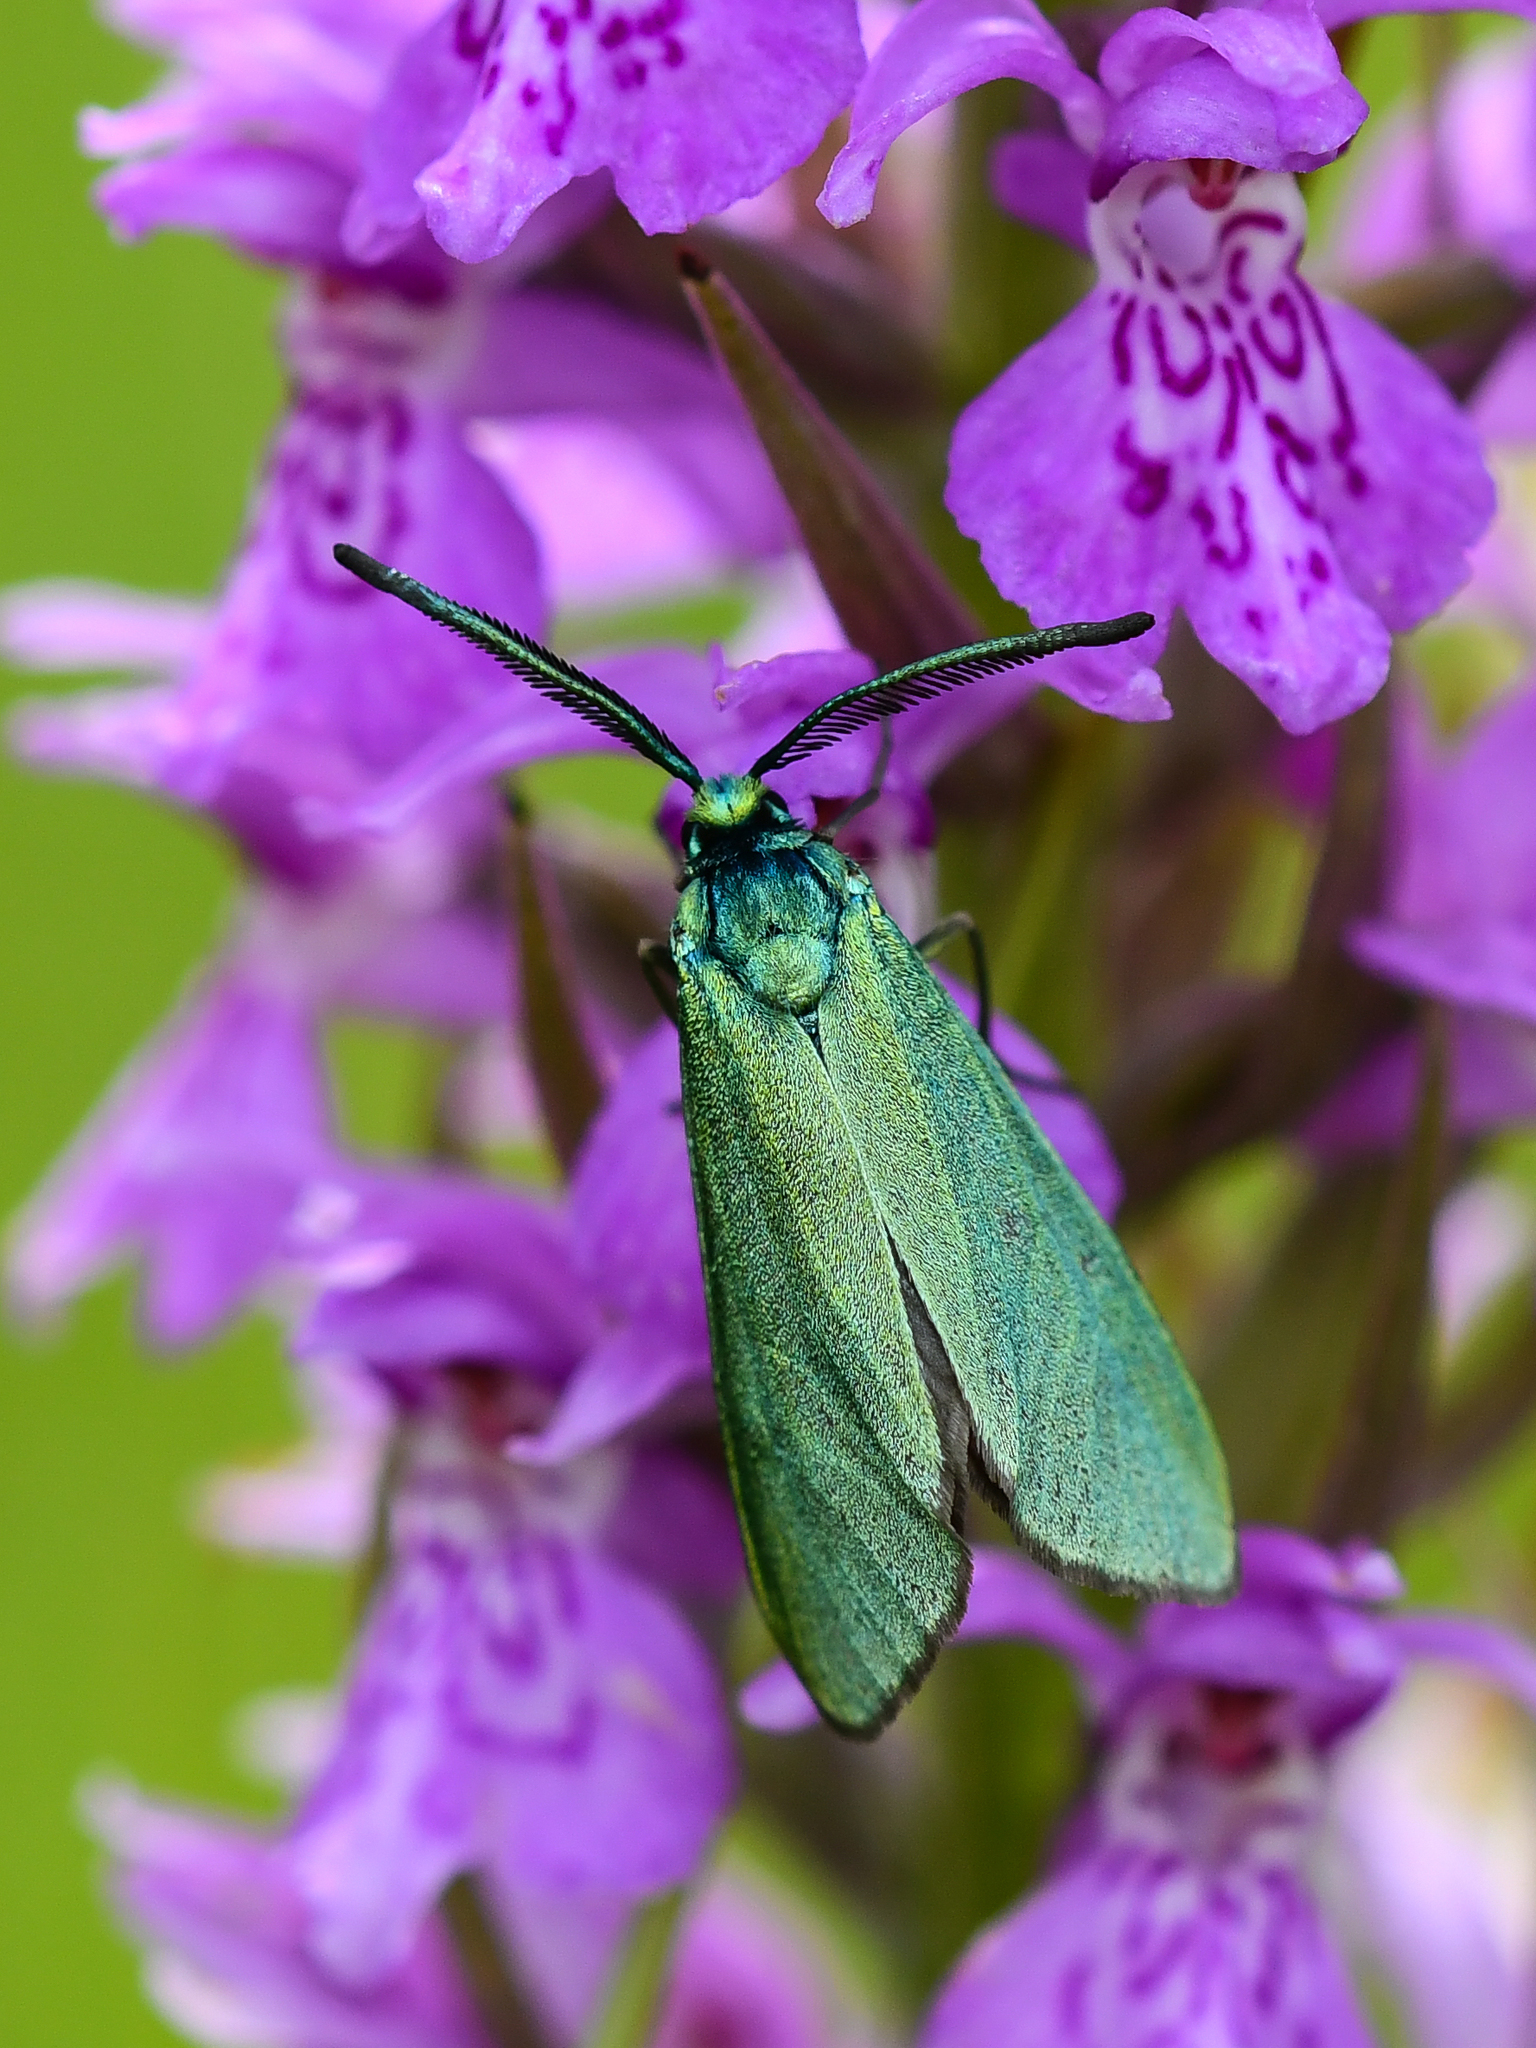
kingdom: Animalia
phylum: Arthropoda
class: Insecta
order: Lepidoptera
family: Zygaenidae
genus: Adscita
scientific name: Adscita statices
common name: Forester
